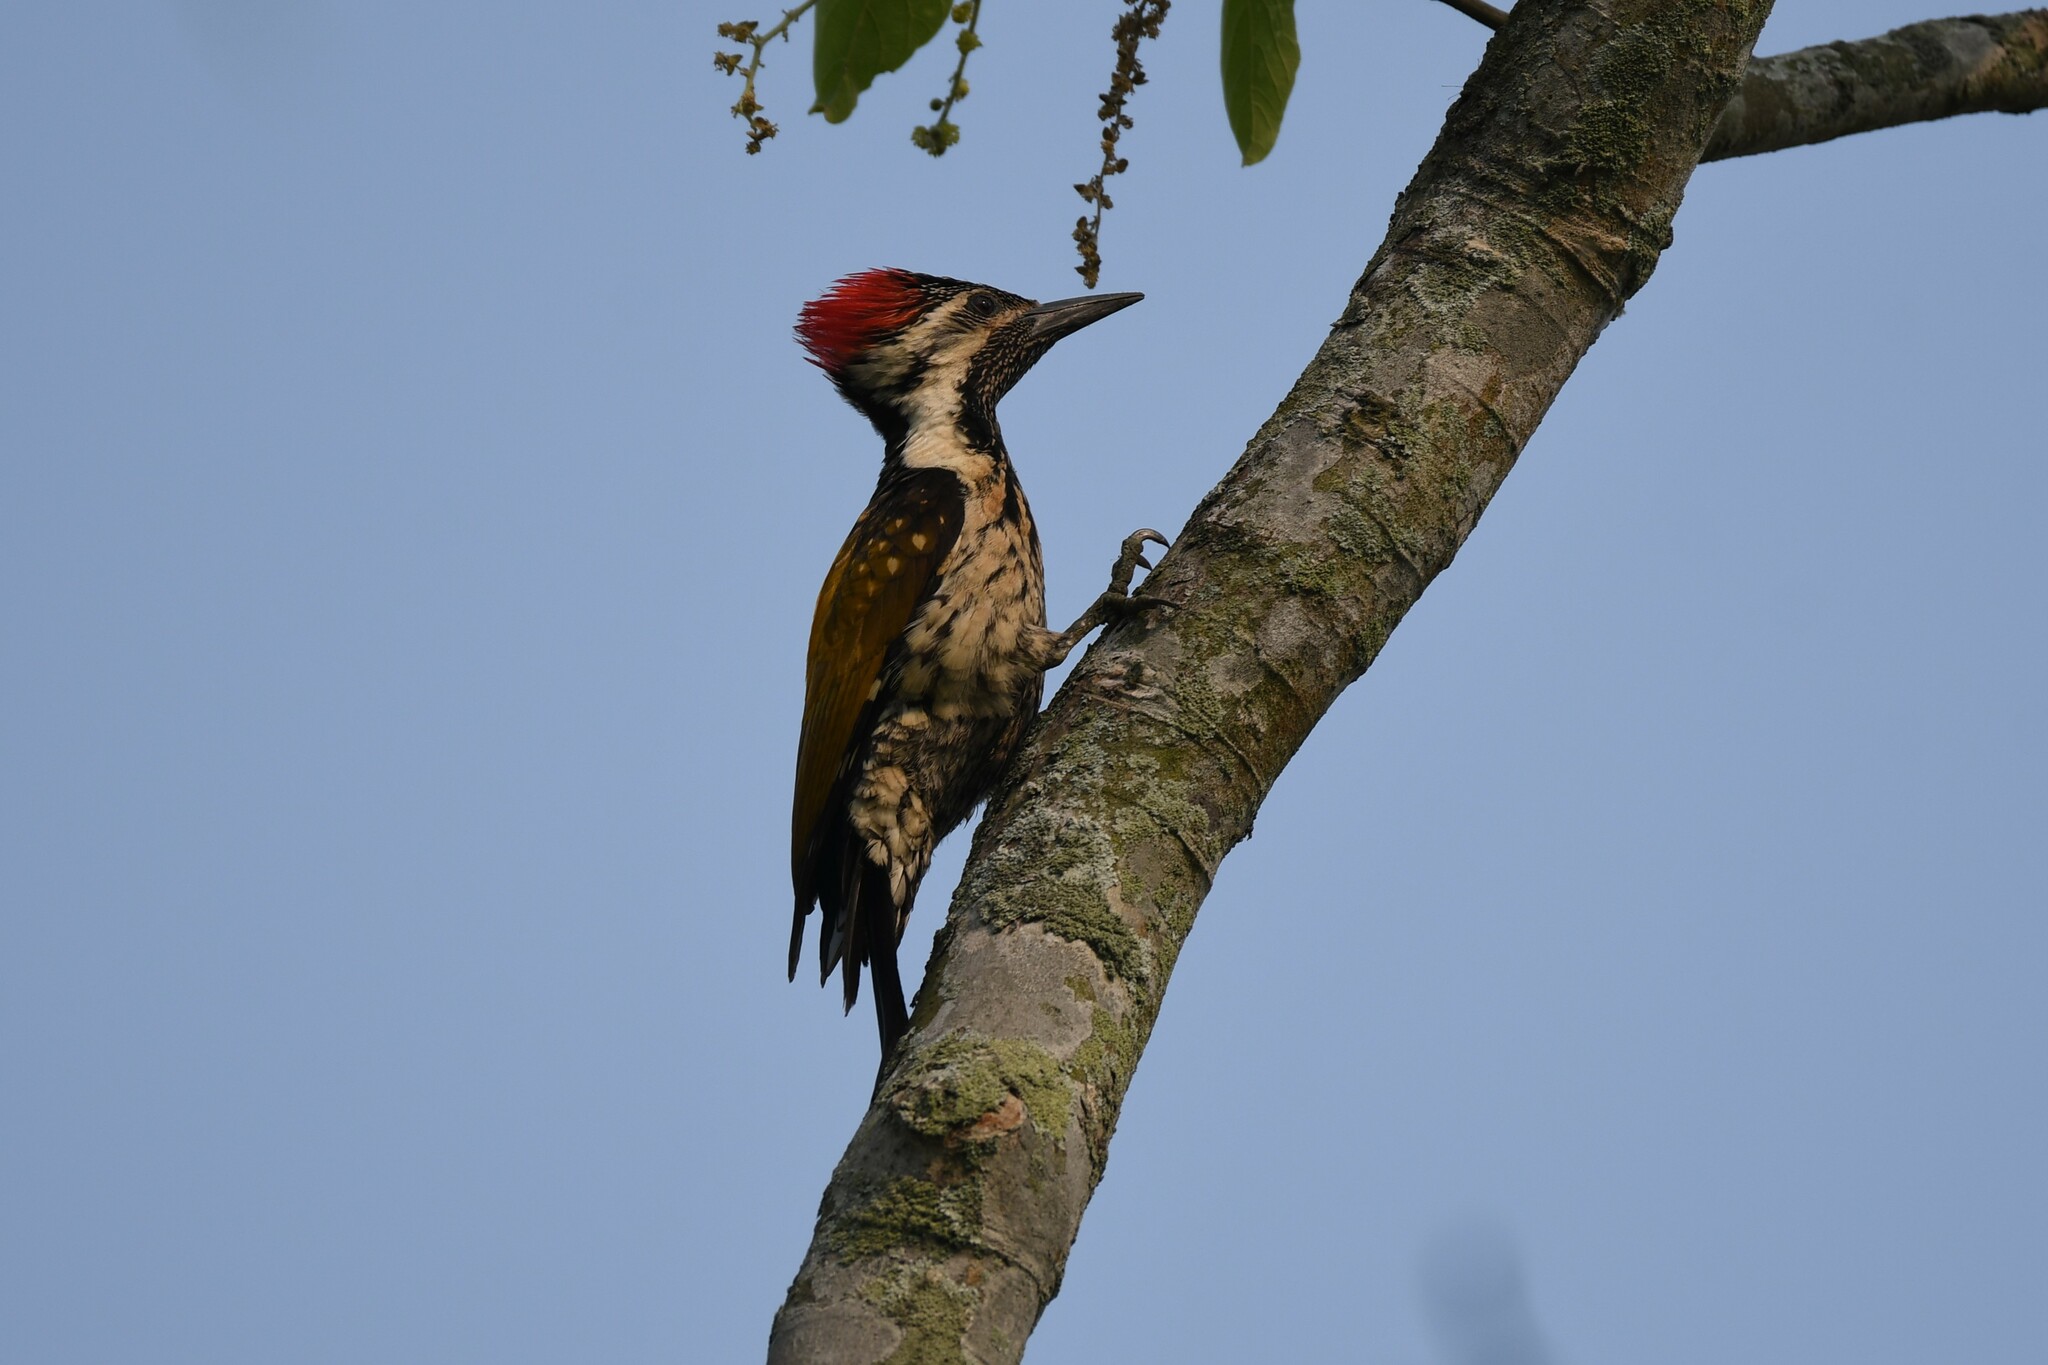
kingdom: Animalia
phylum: Chordata
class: Aves
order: Piciformes
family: Picidae
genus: Dinopium
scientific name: Dinopium benghalense
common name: Black-rumped flameback
